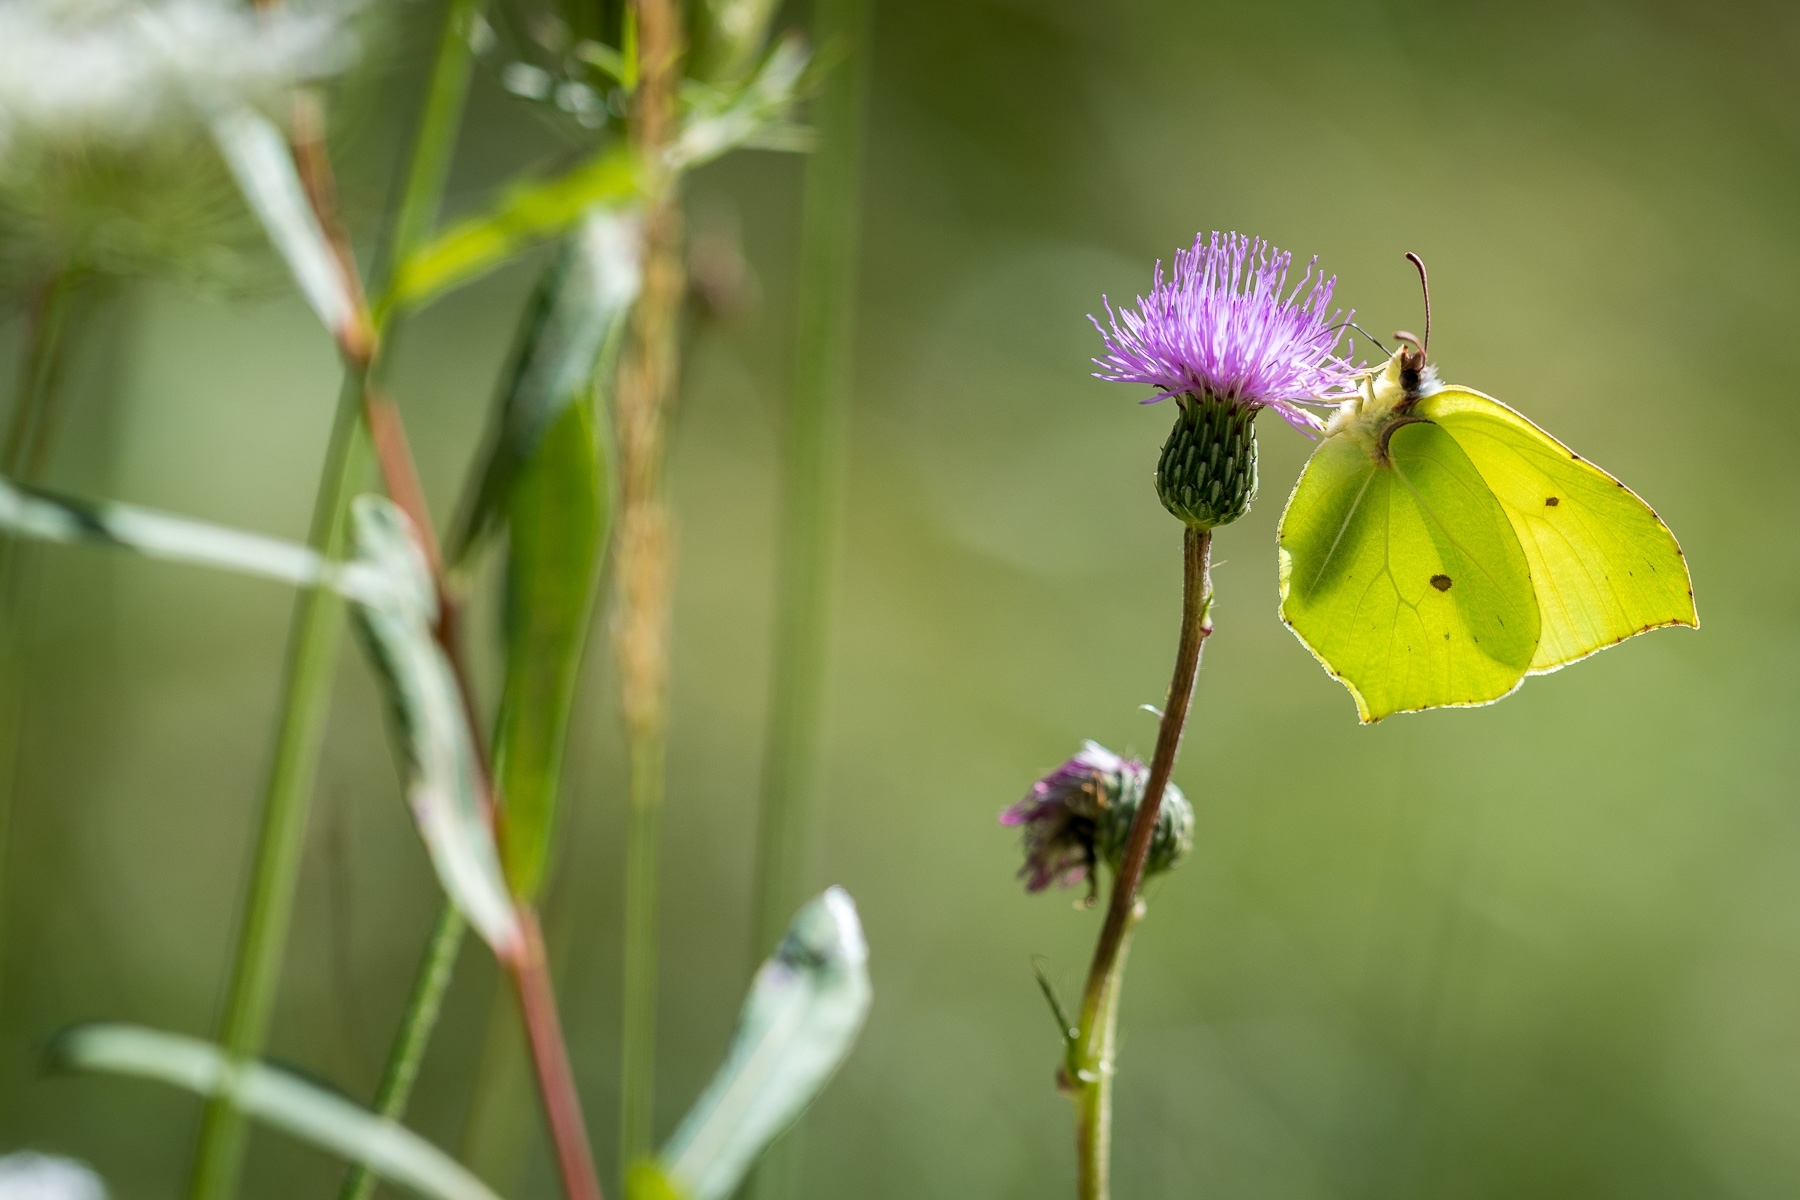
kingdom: Animalia
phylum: Arthropoda
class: Insecta
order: Lepidoptera
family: Pieridae
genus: Gonepteryx
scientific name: Gonepteryx rhamni
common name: Brimstone
